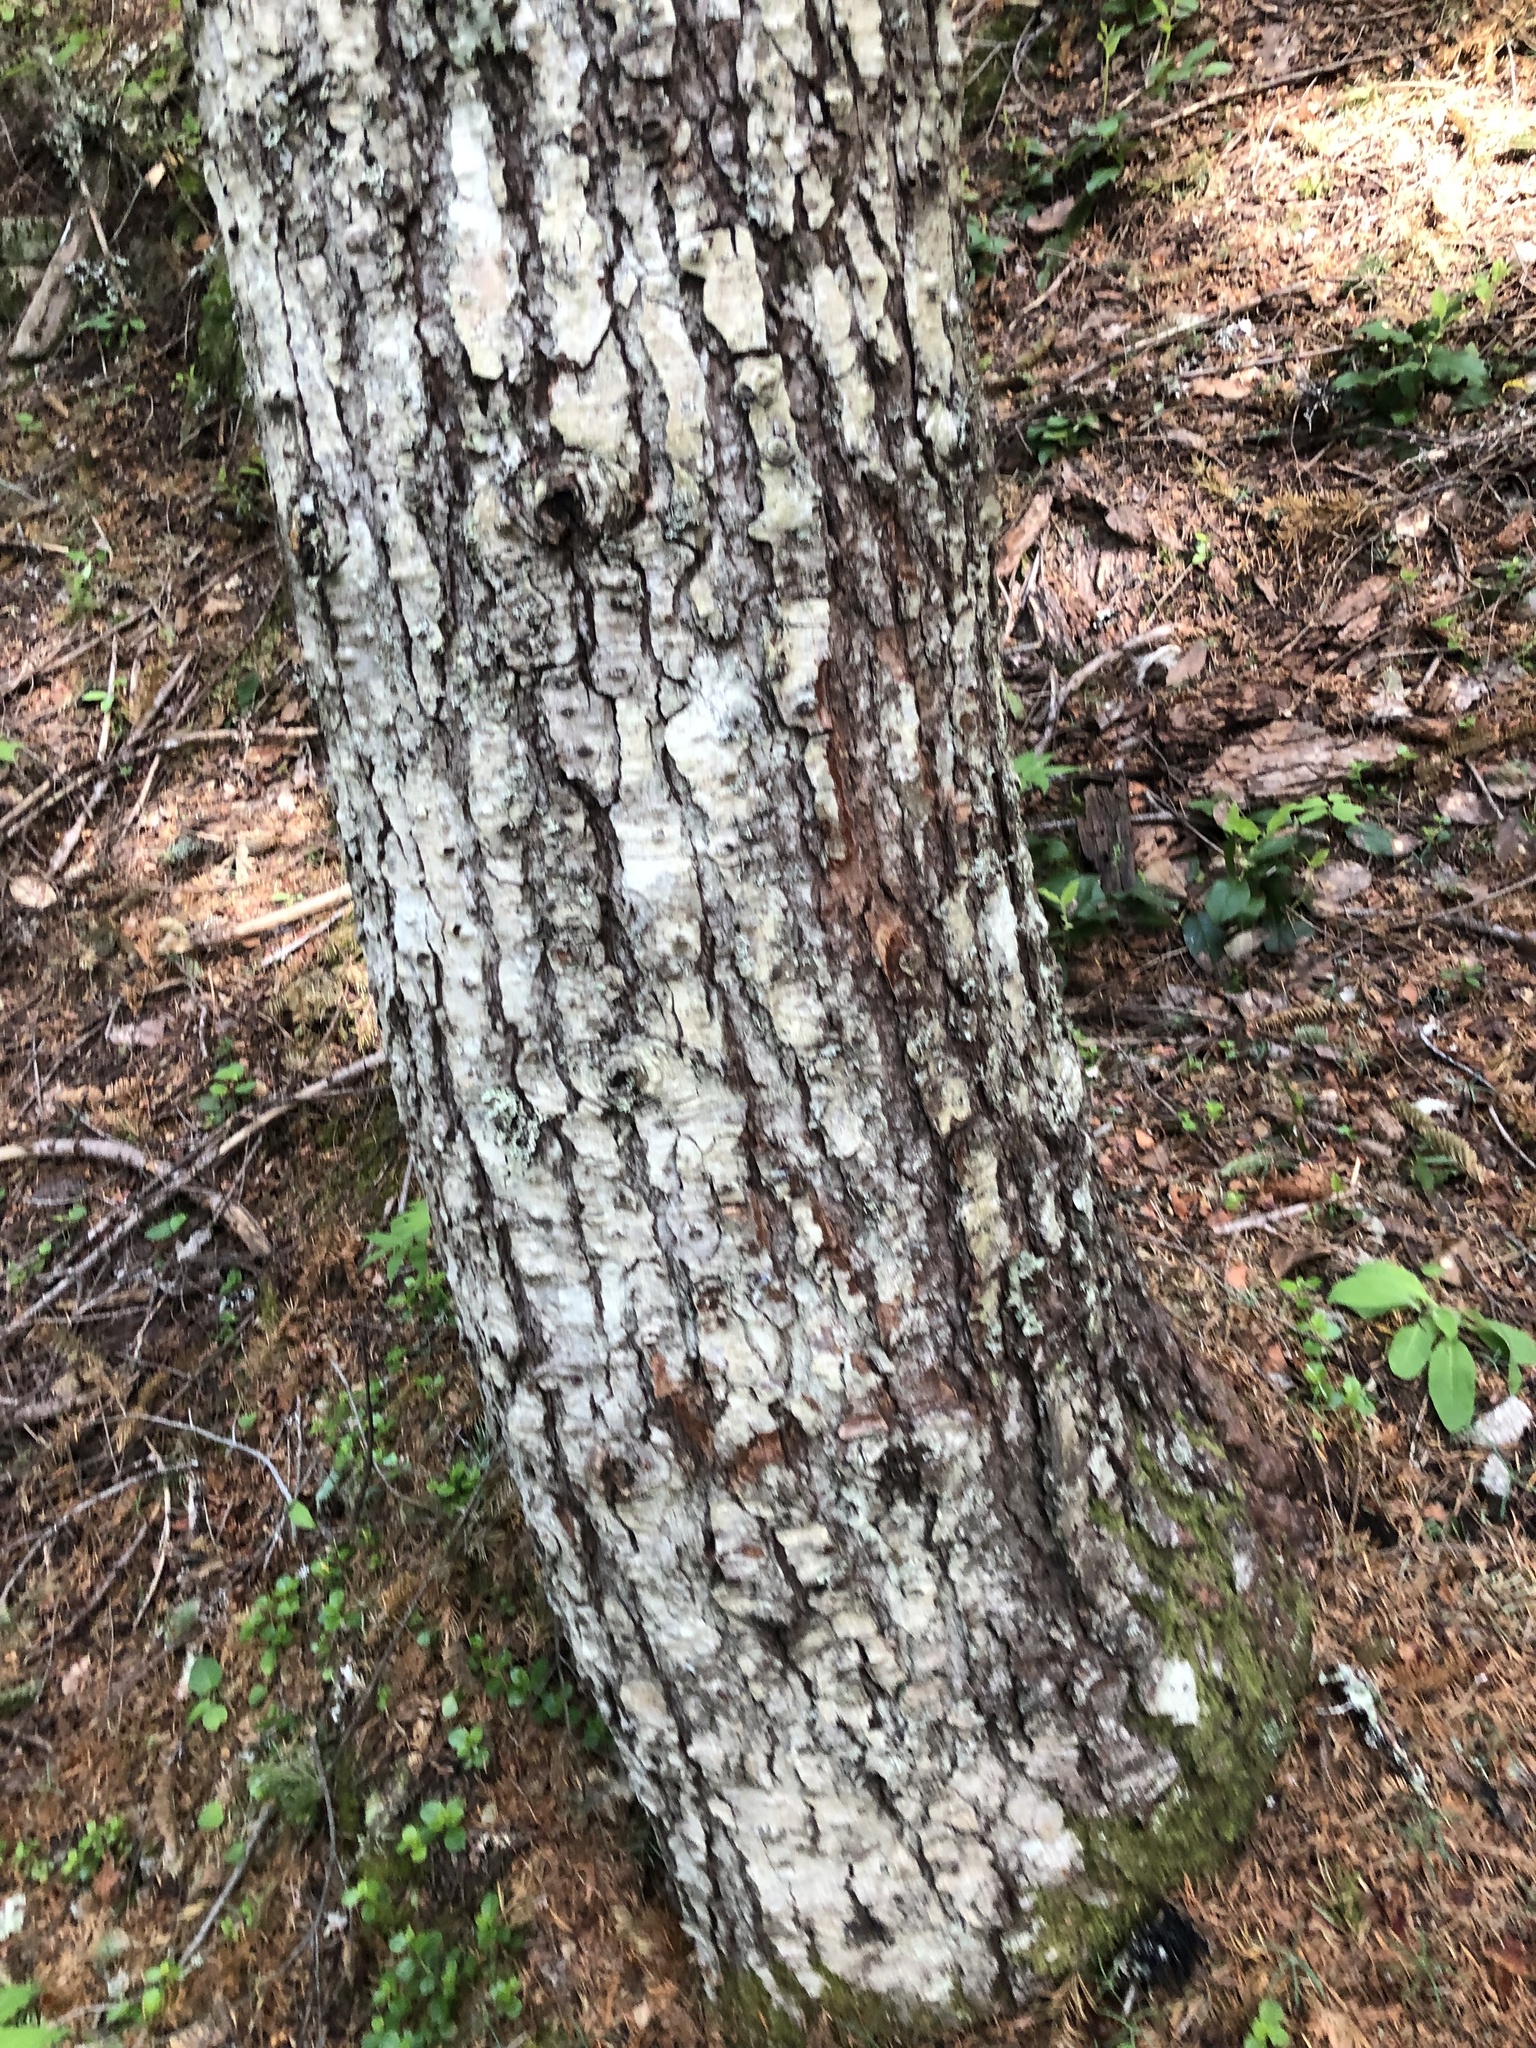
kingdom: Plantae
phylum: Tracheophyta
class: Pinopsida
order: Pinales
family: Pinaceae
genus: Abies
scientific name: Abies procera
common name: Noble fir
